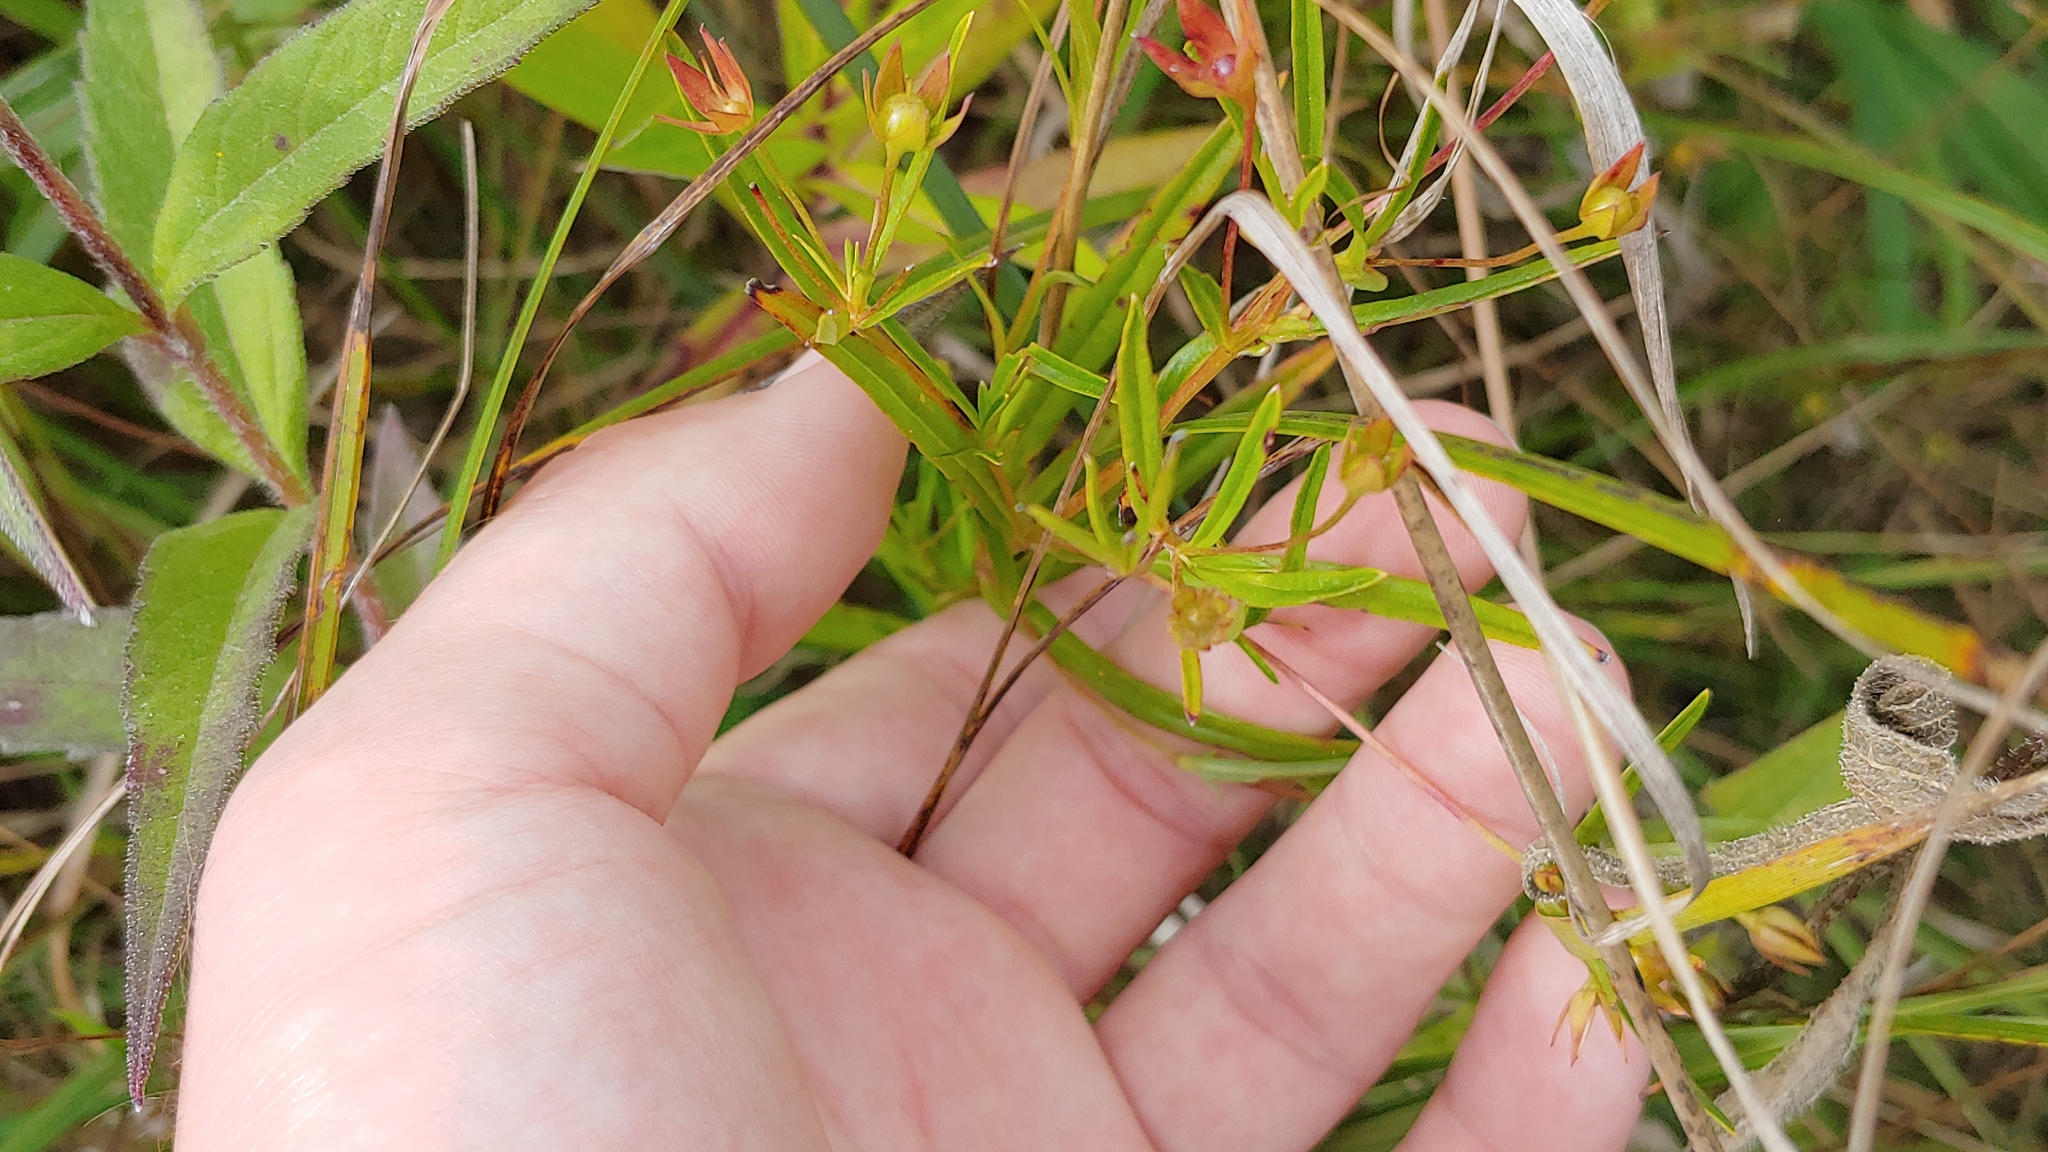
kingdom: Plantae
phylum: Tracheophyta
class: Magnoliopsida
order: Ericales
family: Primulaceae
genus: Lysimachia
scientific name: Lysimachia quadriflora
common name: Four-flowered loosestrife
